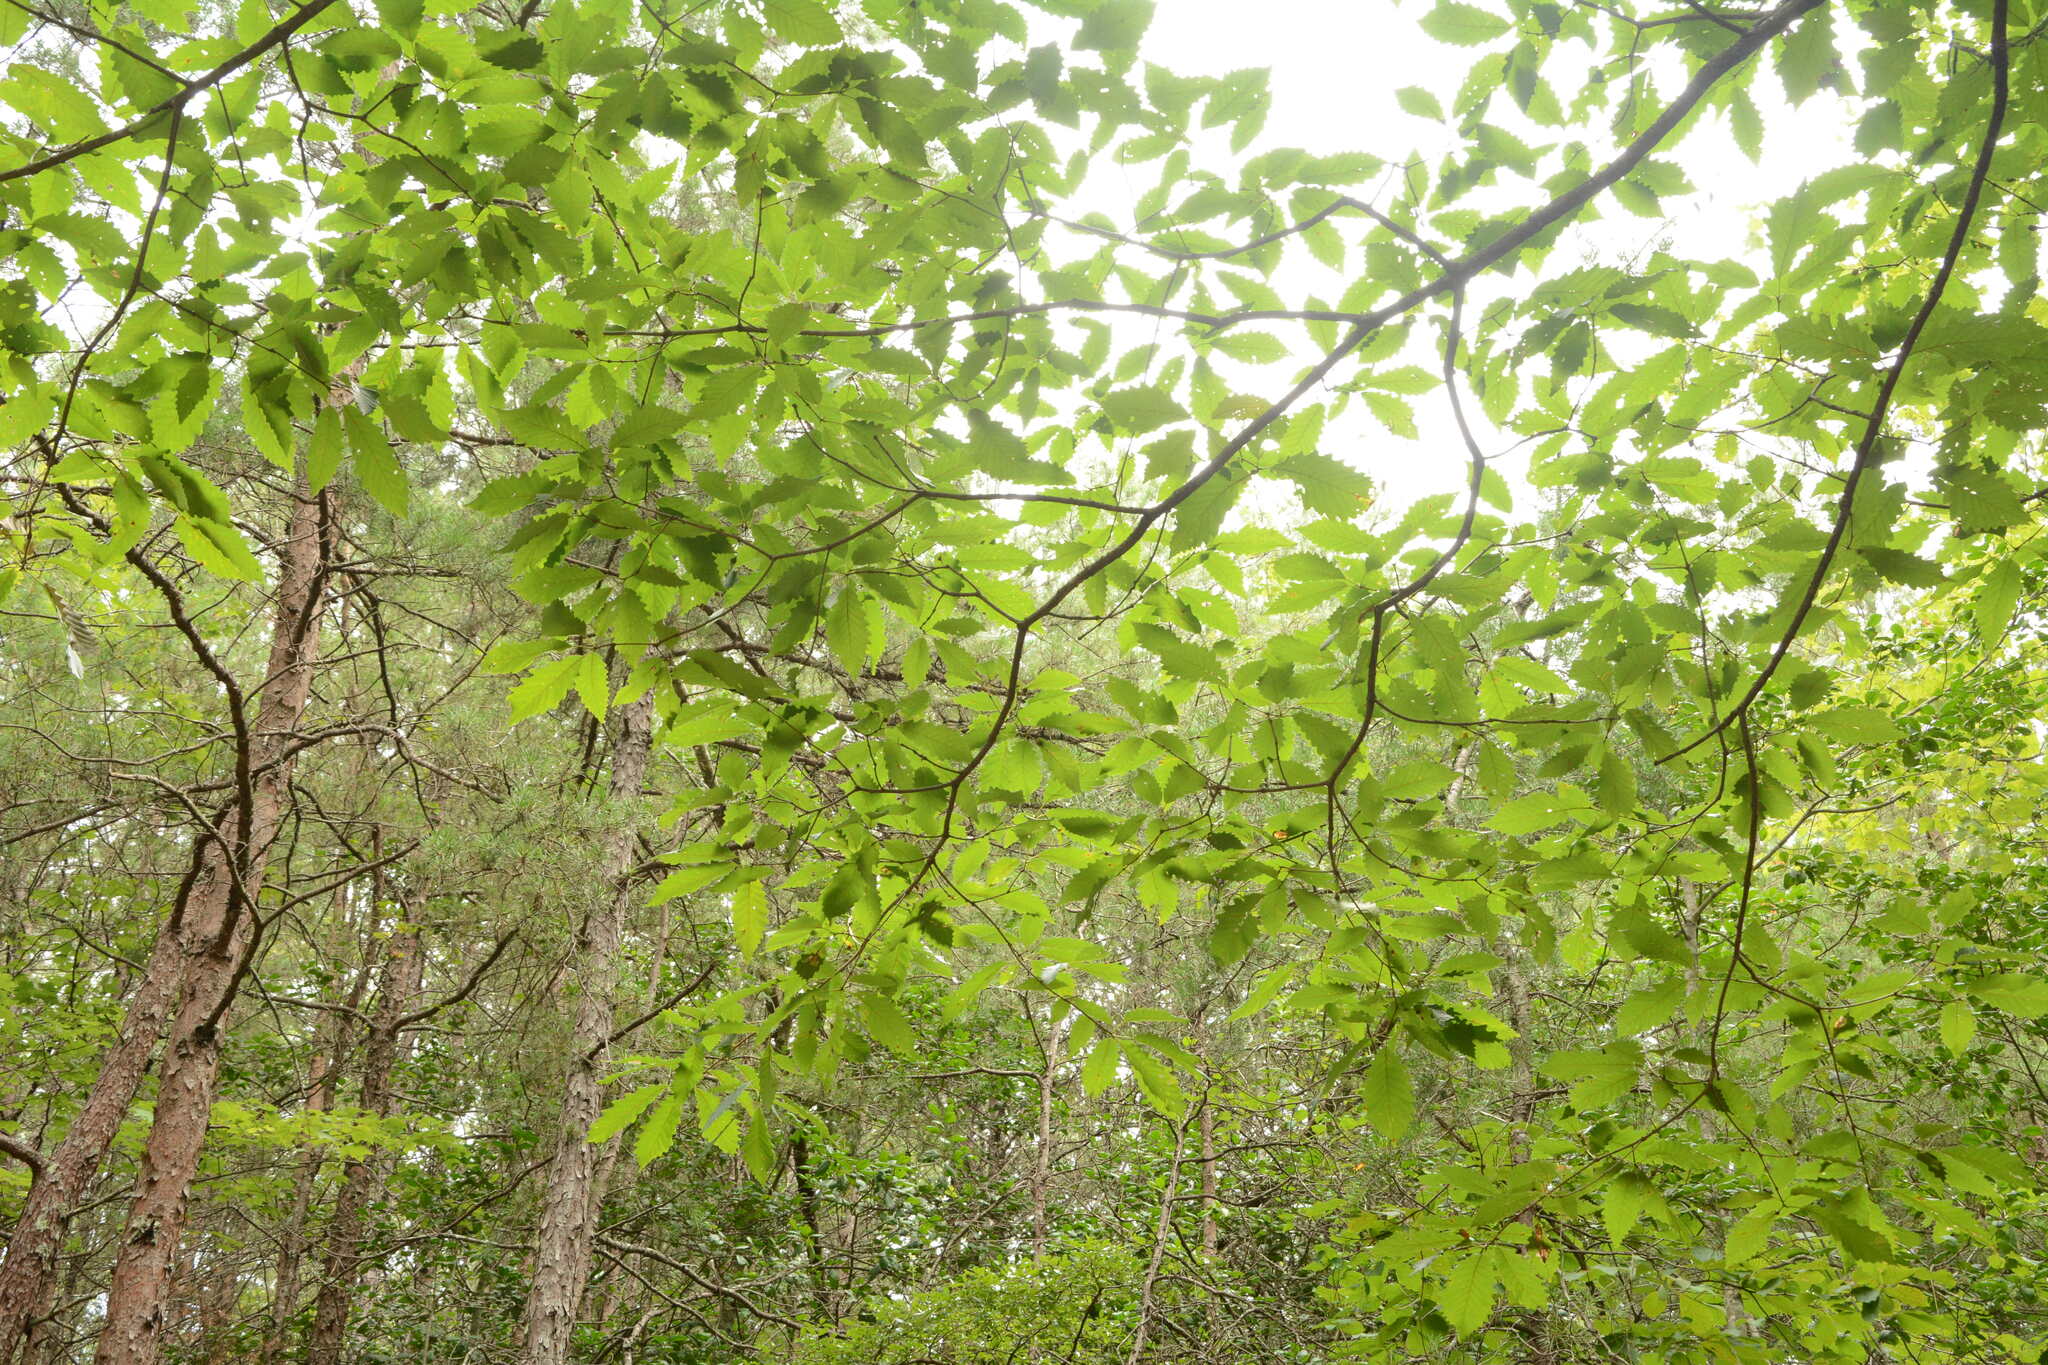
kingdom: Plantae
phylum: Tracheophyta
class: Magnoliopsida
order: Fagales
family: Fagaceae
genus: Quercus
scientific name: Quercus montana
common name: Chestnut oak
